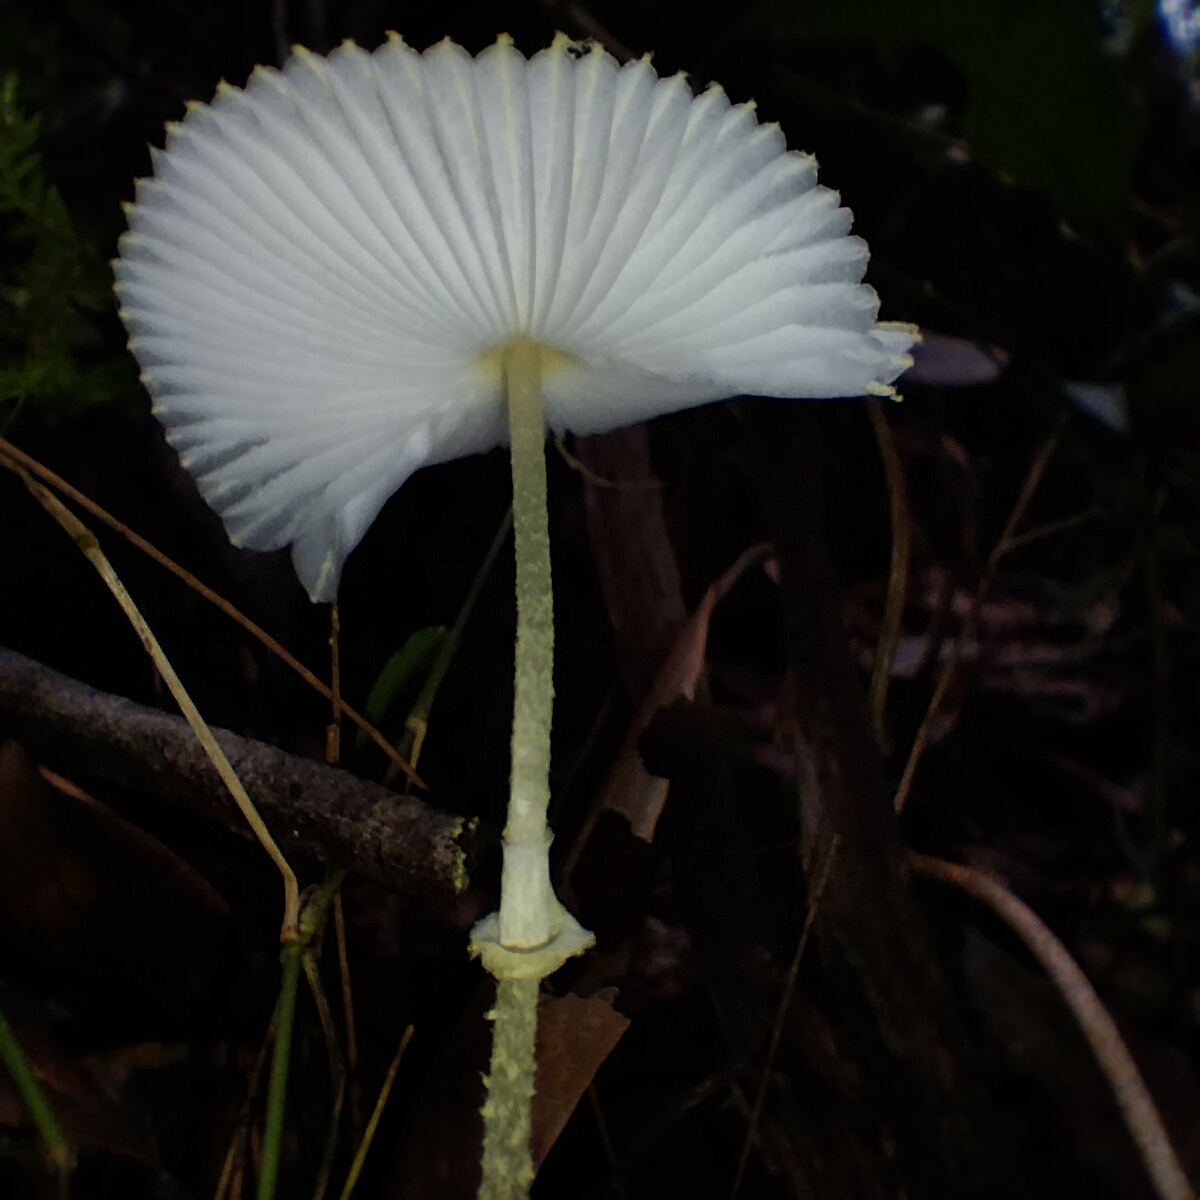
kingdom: Fungi
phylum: Basidiomycota
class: Agaricomycetes
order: Agaricales
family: Agaricaceae
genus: Leucocoprinus
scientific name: Leucocoprinus fragilissimus
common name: Fragile dapperling
